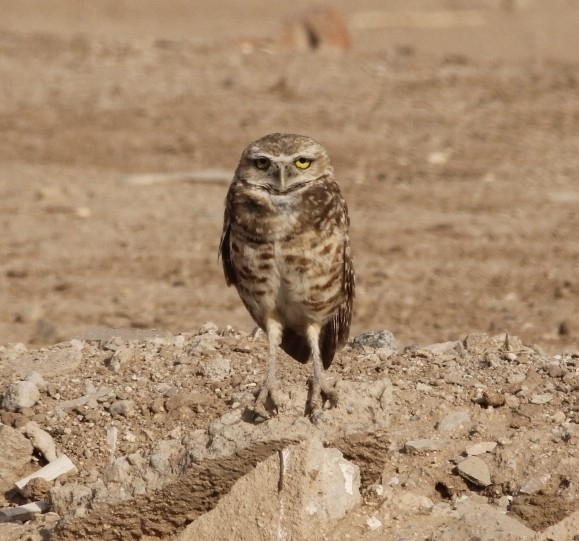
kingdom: Animalia
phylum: Chordata
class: Aves
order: Strigiformes
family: Strigidae
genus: Athene
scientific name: Athene cunicularia
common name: Burrowing owl
